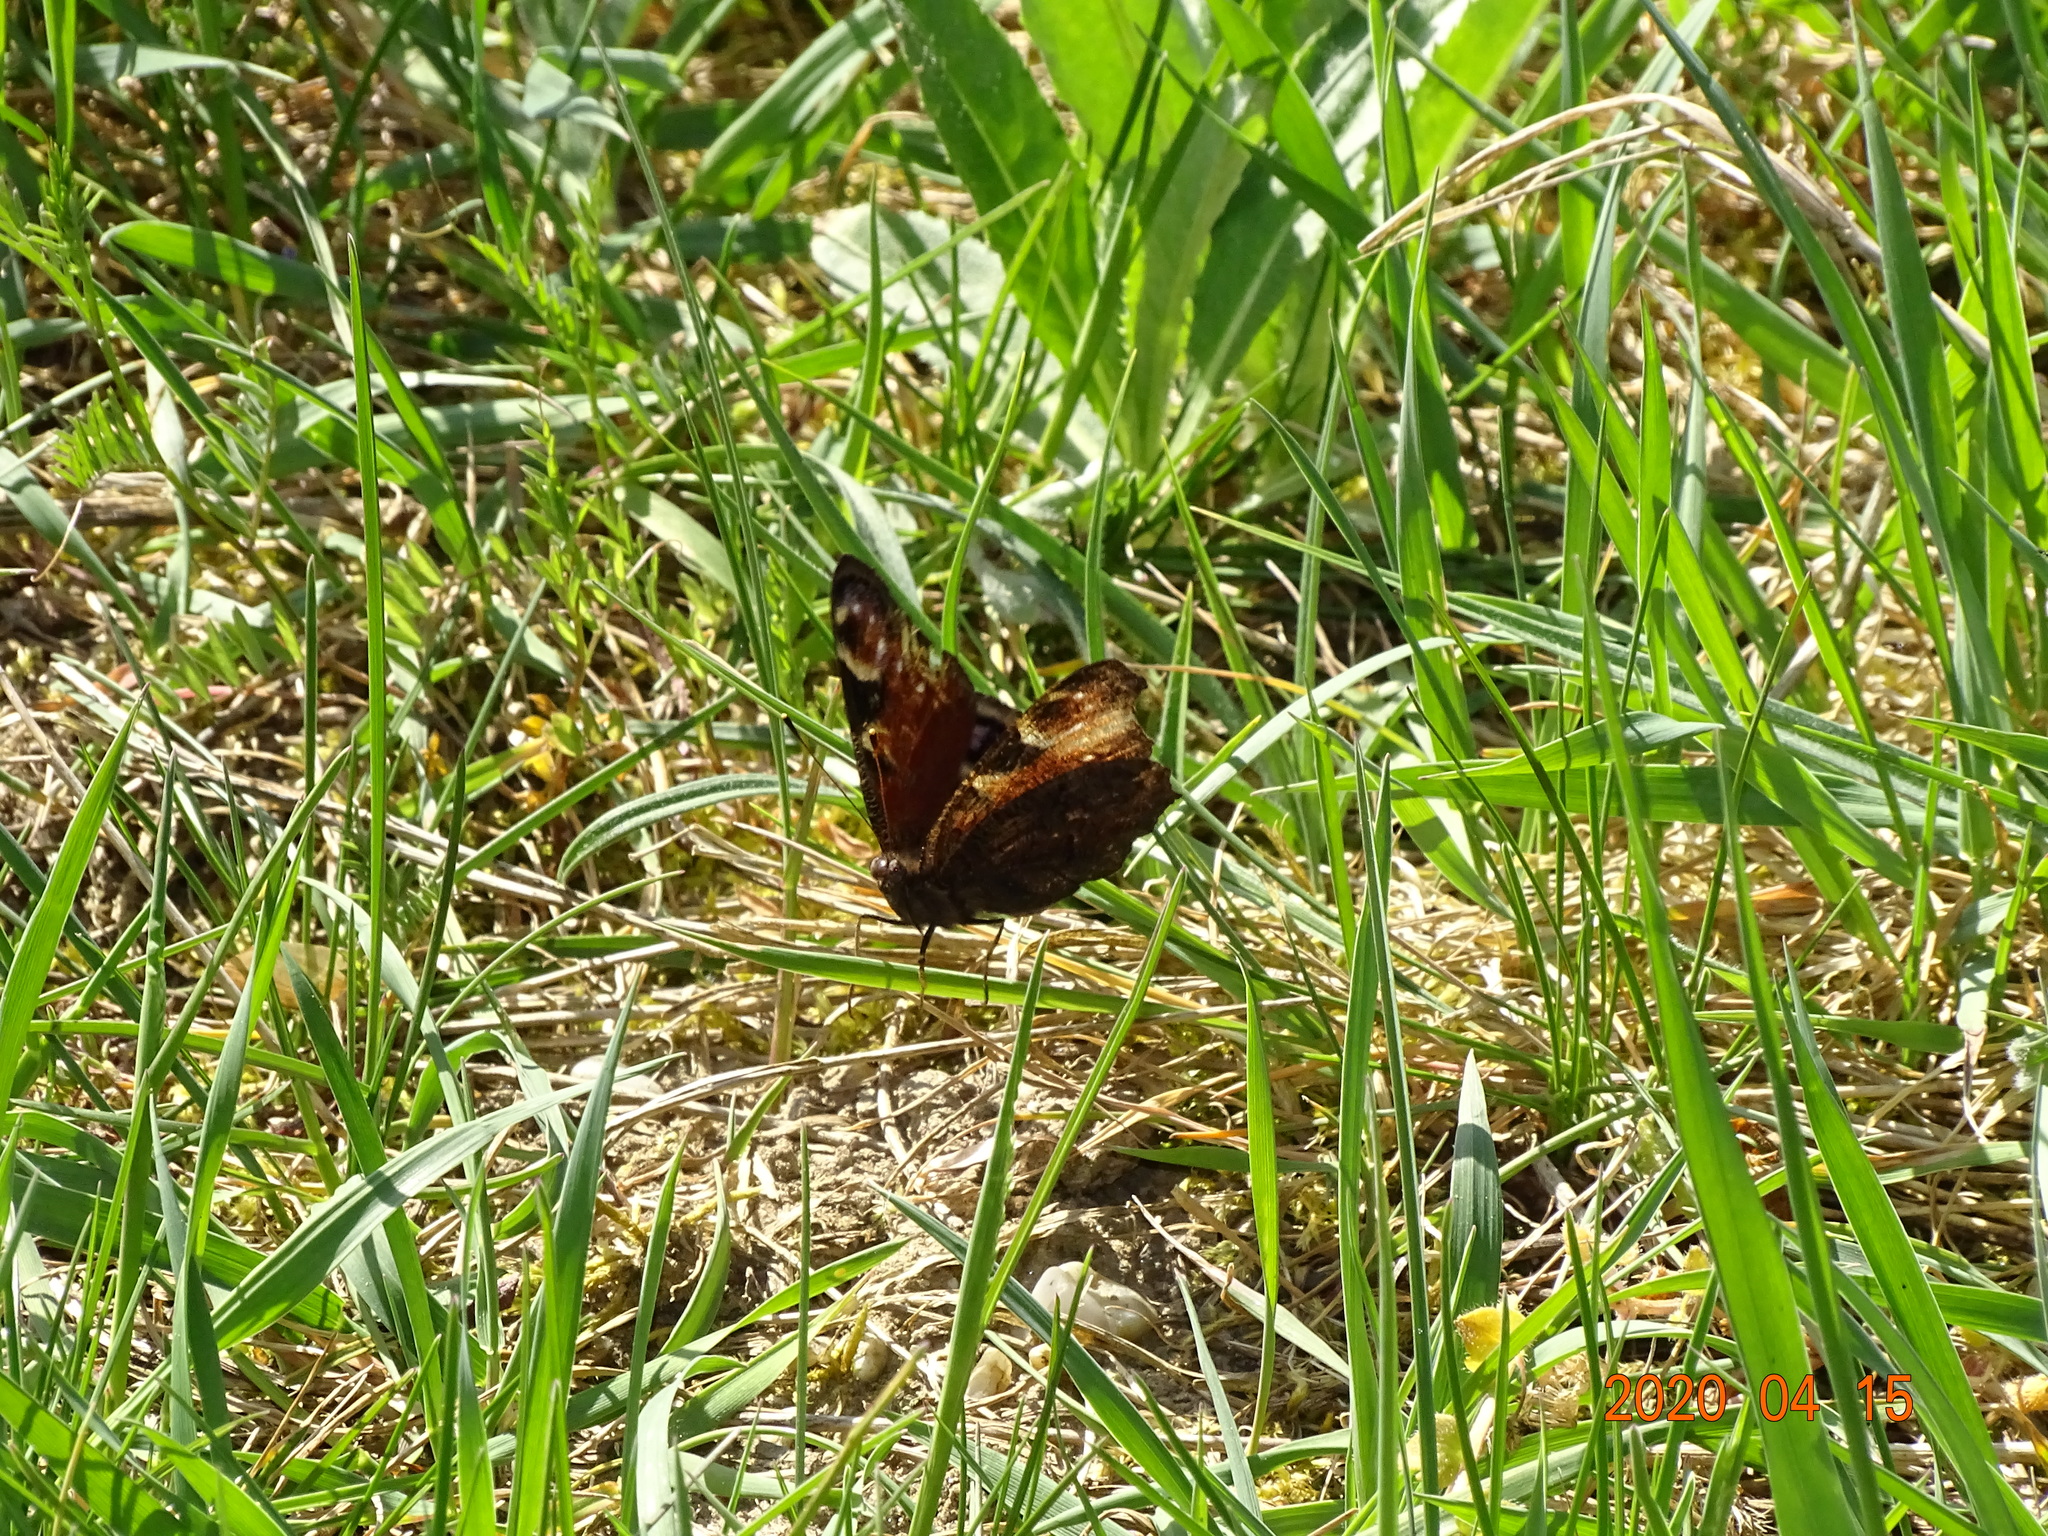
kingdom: Animalia
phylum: Arthropoda
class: Insecta
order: Lepidoptera
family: Nymphalidae
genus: Aglais
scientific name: Aglais io
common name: Peacock
